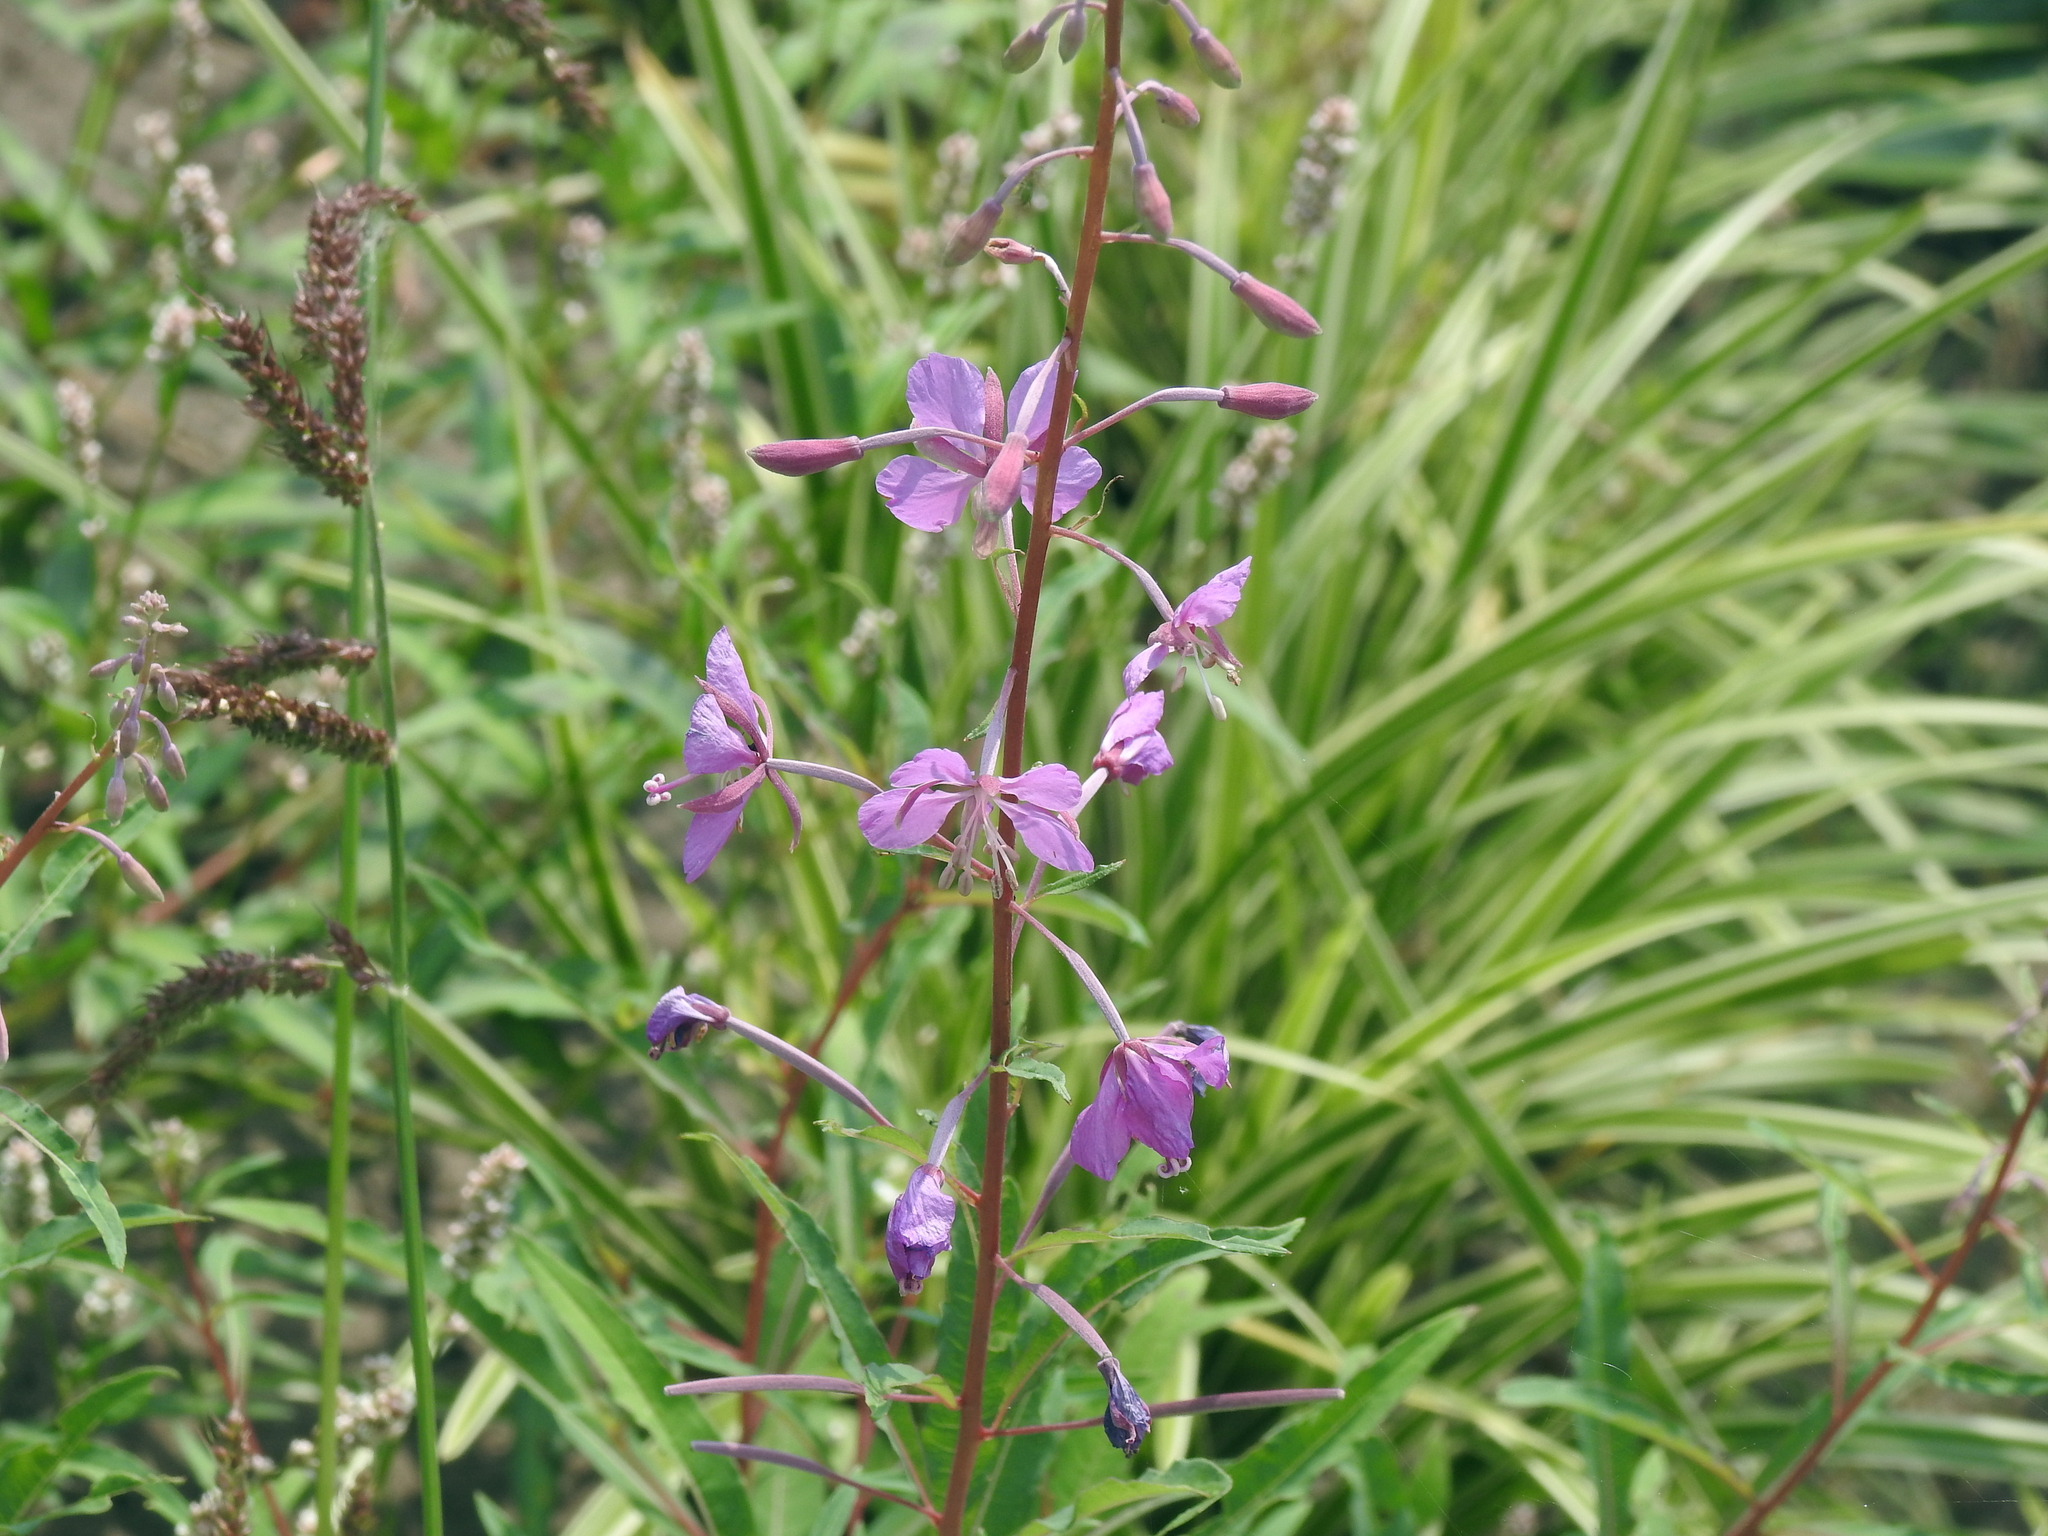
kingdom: Plantae
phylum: Tracheophyta
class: Magnoliopsida
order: Myrtales
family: Onagraceae
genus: Chamaenerion
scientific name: Chamaenerion angustifolium
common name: Fireweed
